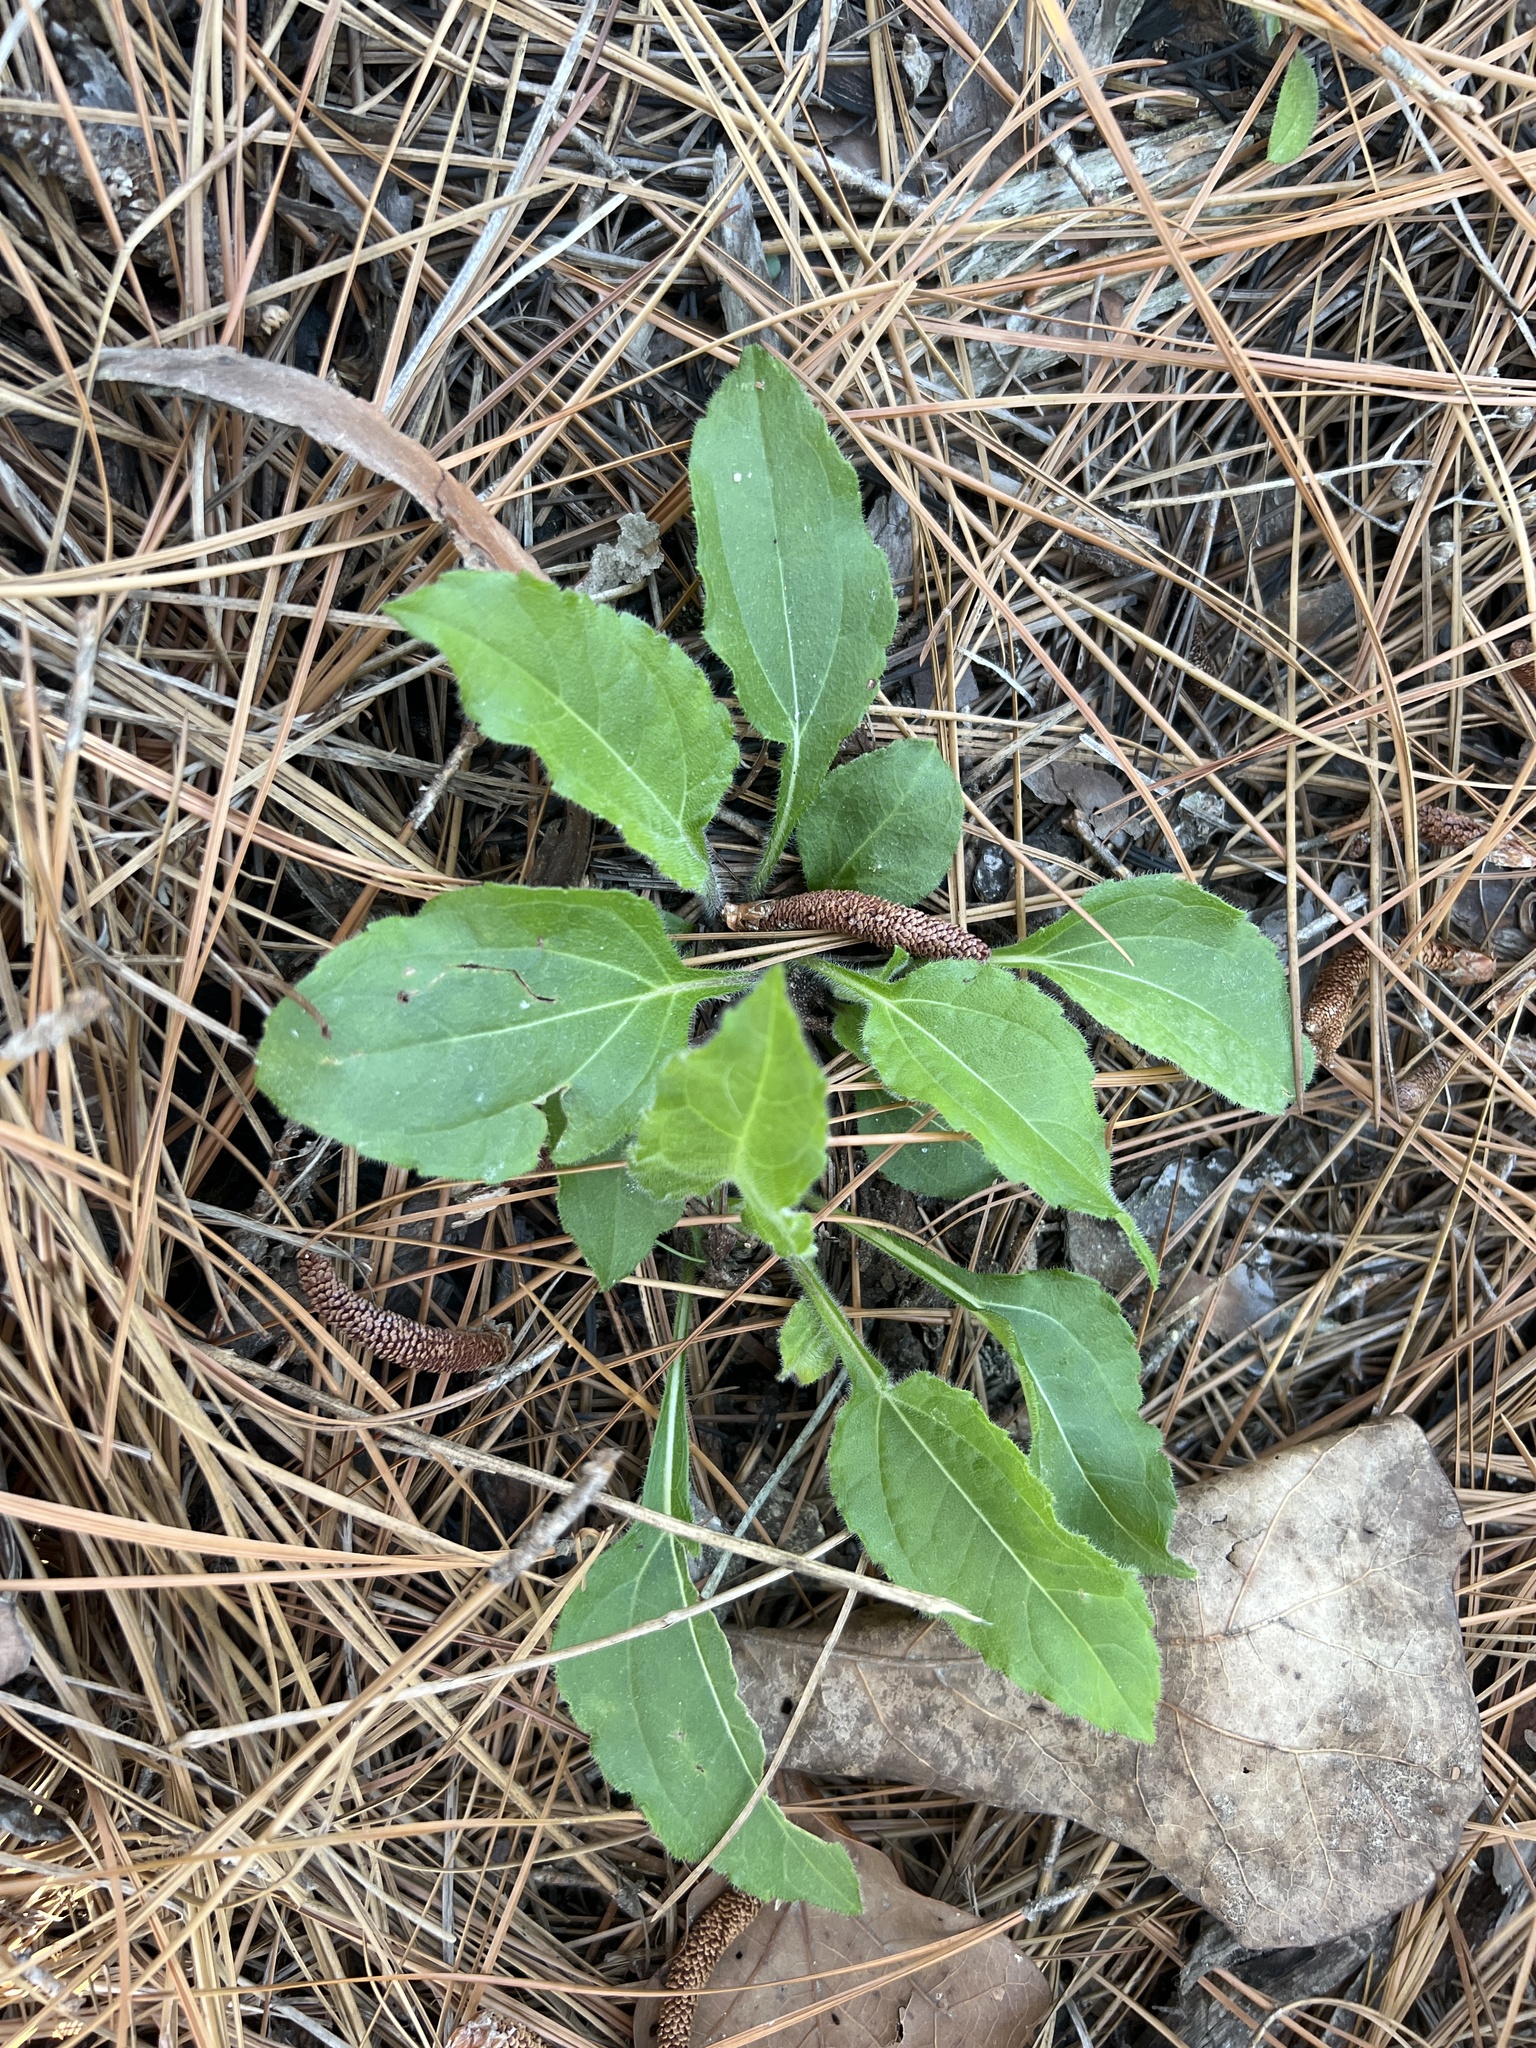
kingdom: Plantae
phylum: Tracheophyta
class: Magnoliopsida
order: Asterales
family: Asteraceae
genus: Helianthus
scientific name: Helianthus atrorubens
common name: Dark-eyed sunflower
